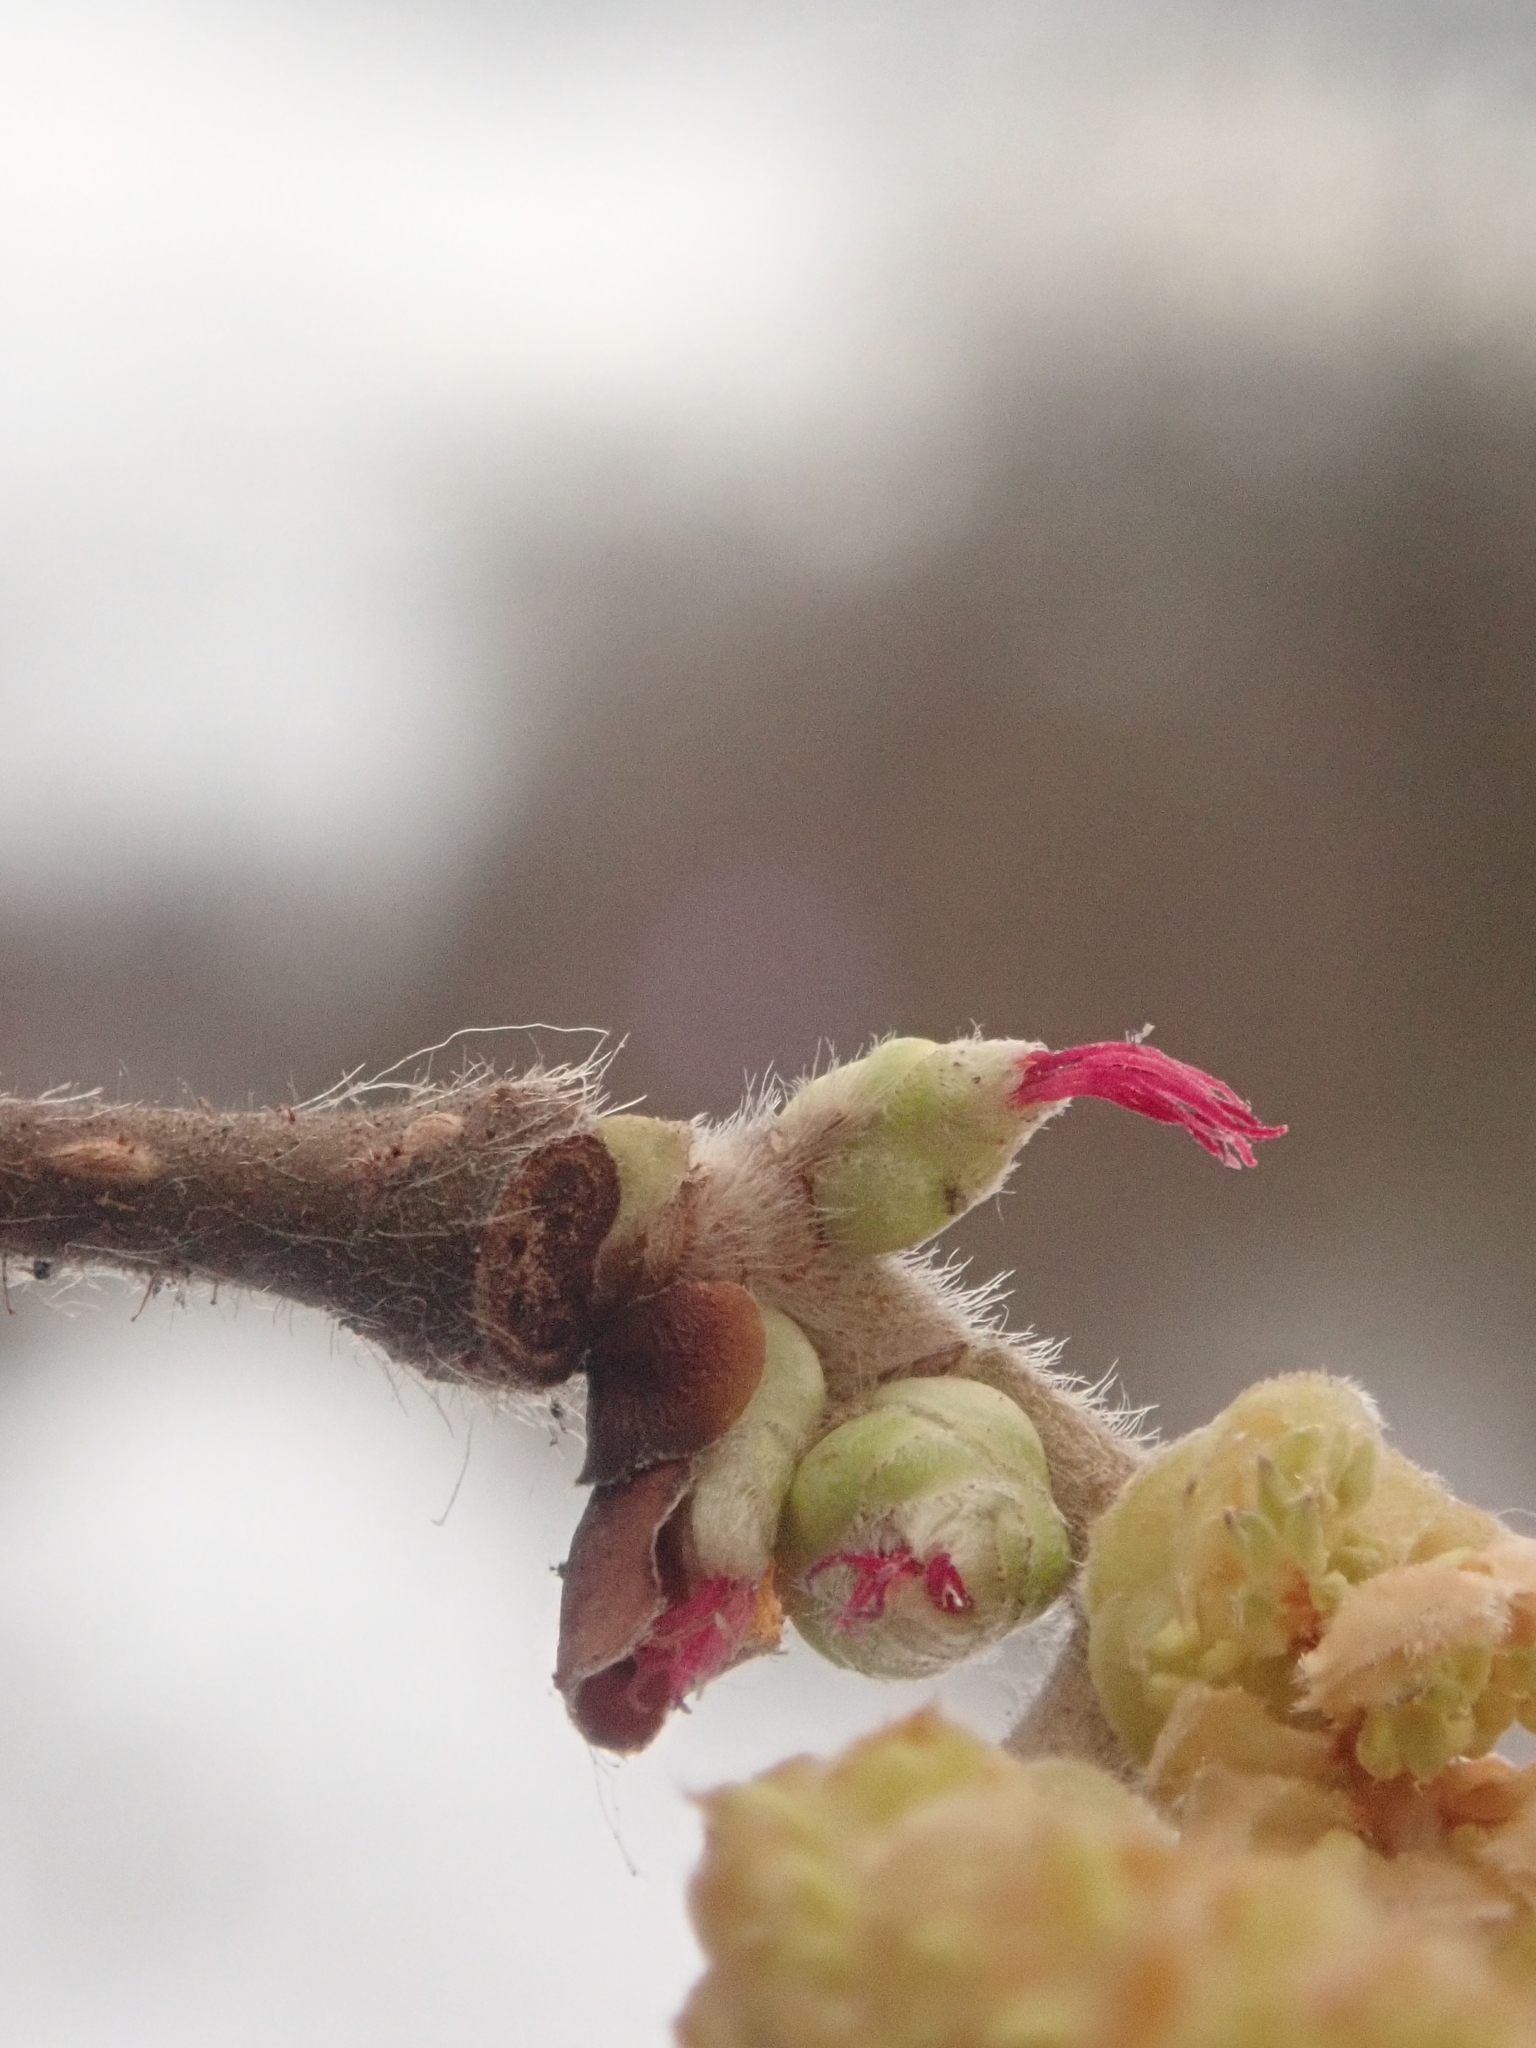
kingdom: Plantae
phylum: Tracheophyta
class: Magnoliopsida
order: Fagales
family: Betulaceae
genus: Corylus
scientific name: Corylus avellana
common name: European hazel
